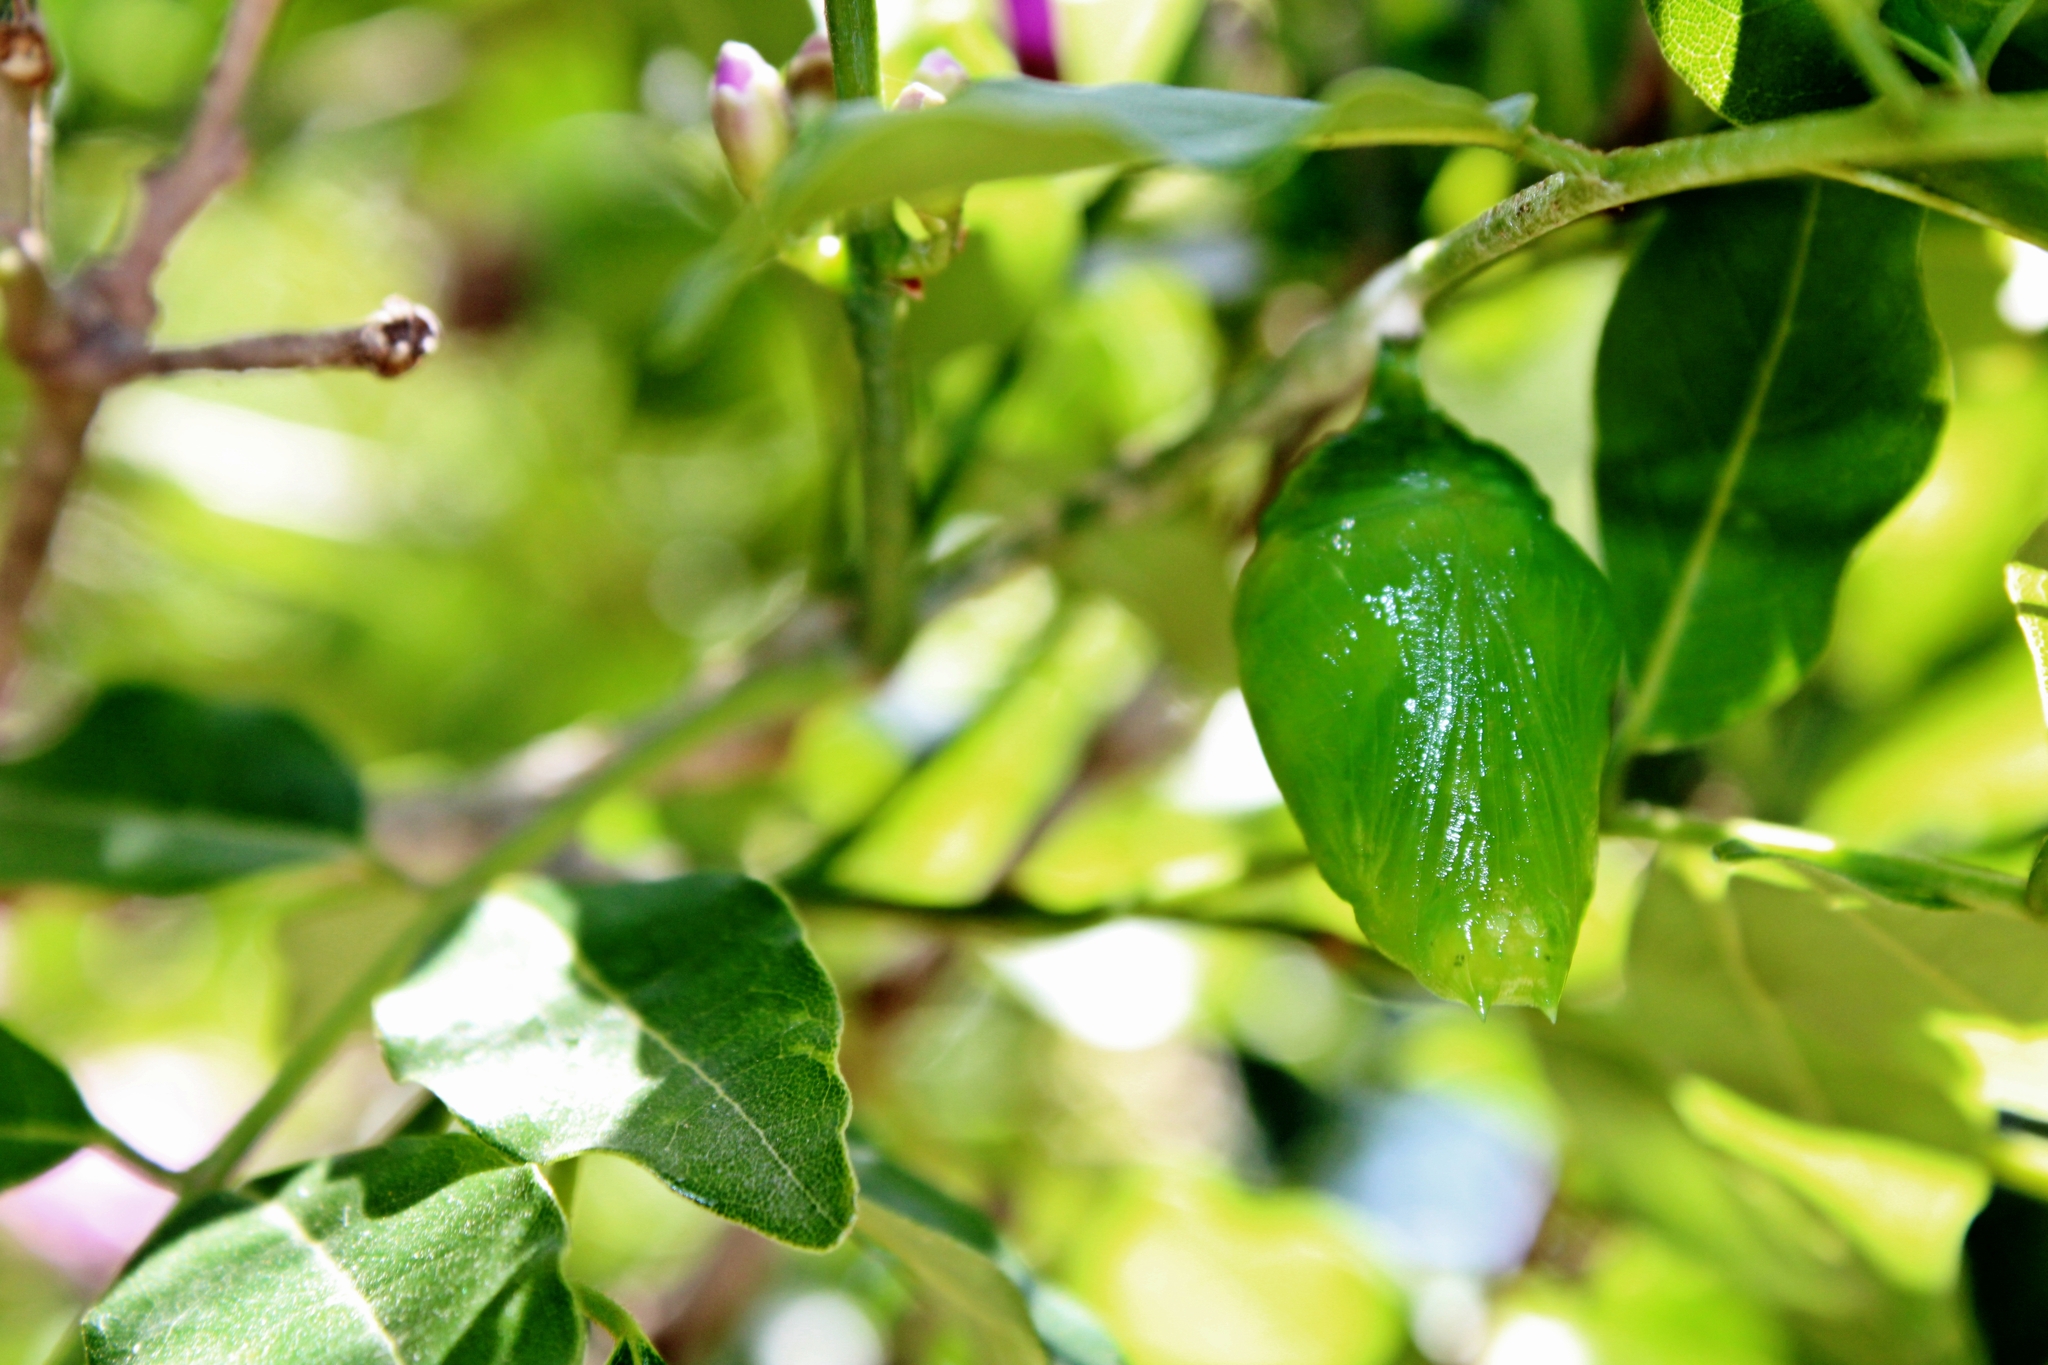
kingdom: Animalia
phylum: Arthropoda
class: Insecta
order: Lepidoptera
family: Nymphalidae
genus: Morpho
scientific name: Morpho epistrophus
